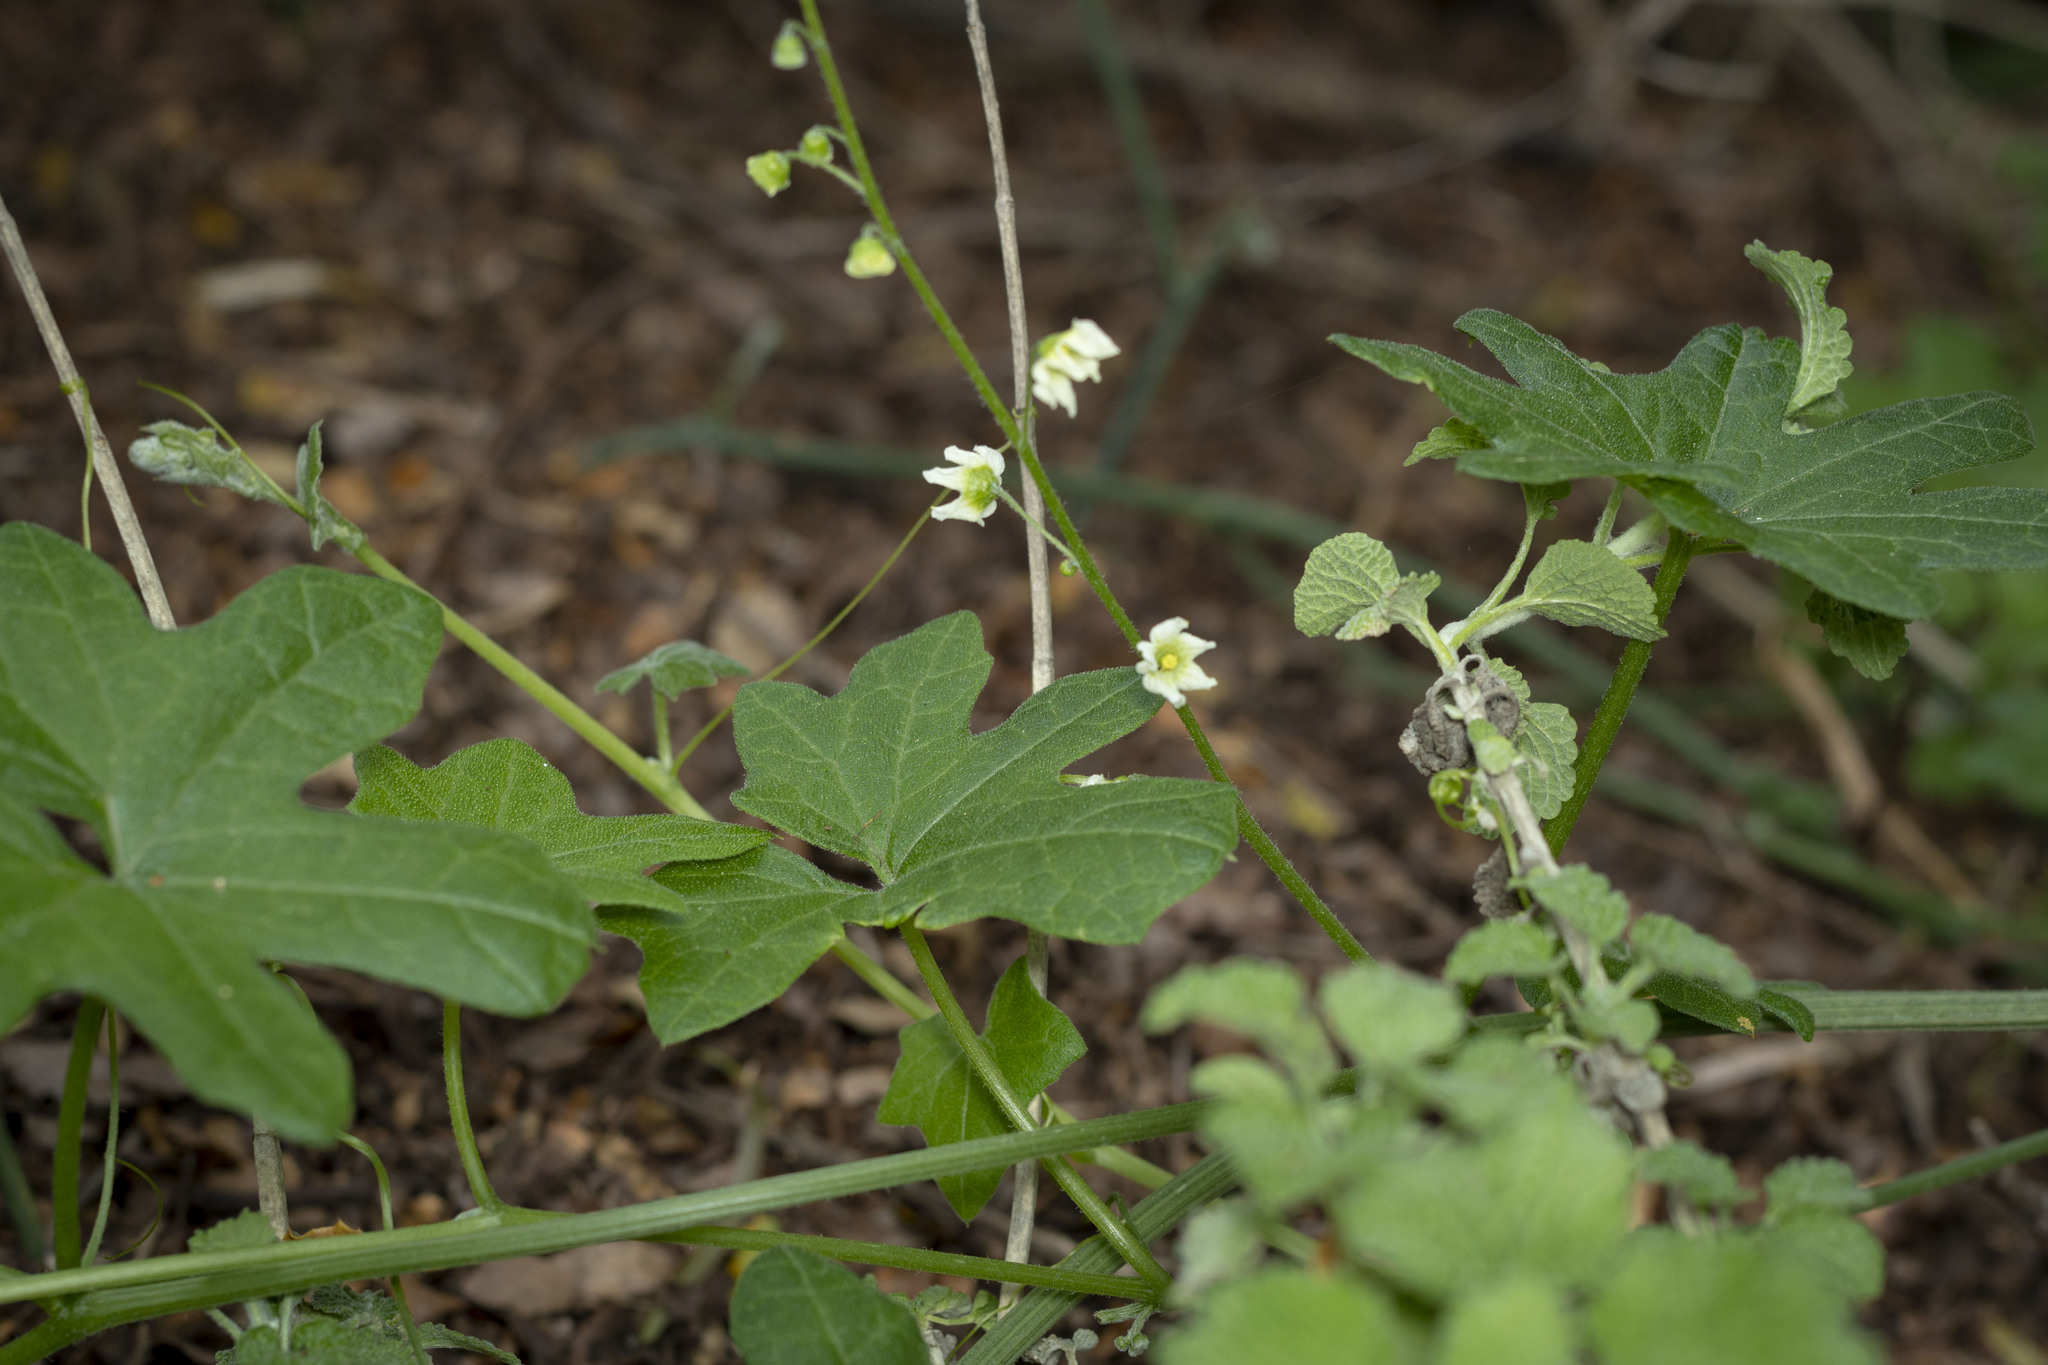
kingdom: Plantae
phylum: Tracheophyta
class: Magnoliopsida
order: Cucurbitales
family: Cucurbitaceae
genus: Marah
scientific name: Marah macrocarpa
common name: Cucamonga manroot
